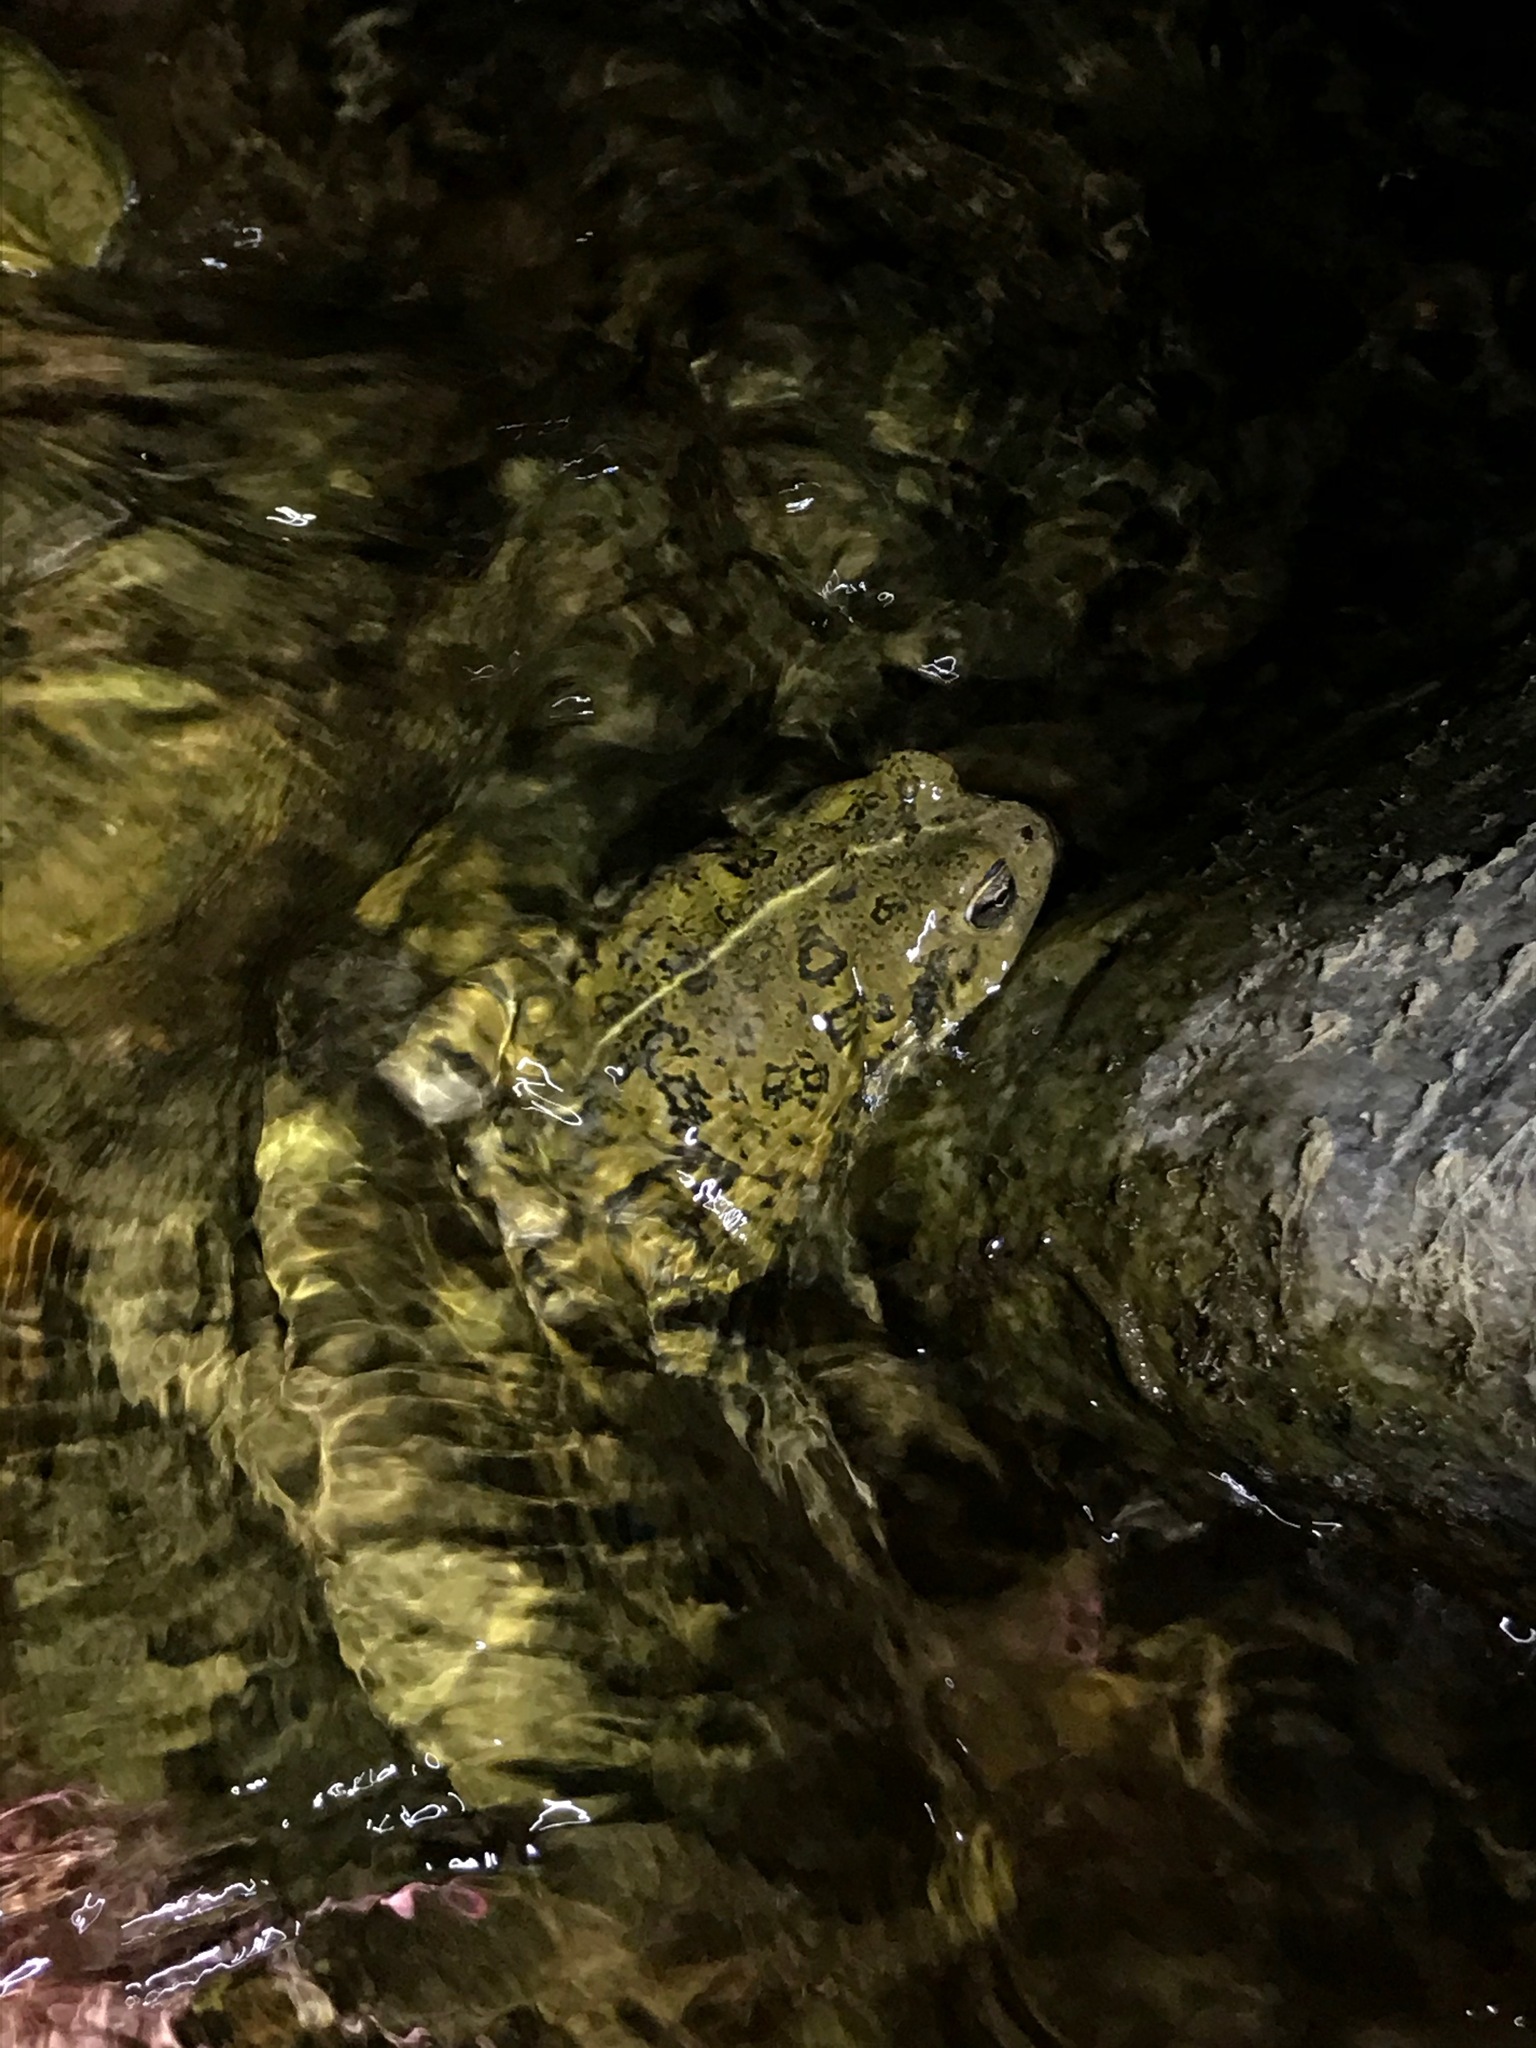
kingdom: Animalia
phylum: Chordata
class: Amphibia
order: Anura
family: Bufonidae
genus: Anaxyrus
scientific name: Anaxyrus boreas
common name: Western toad
